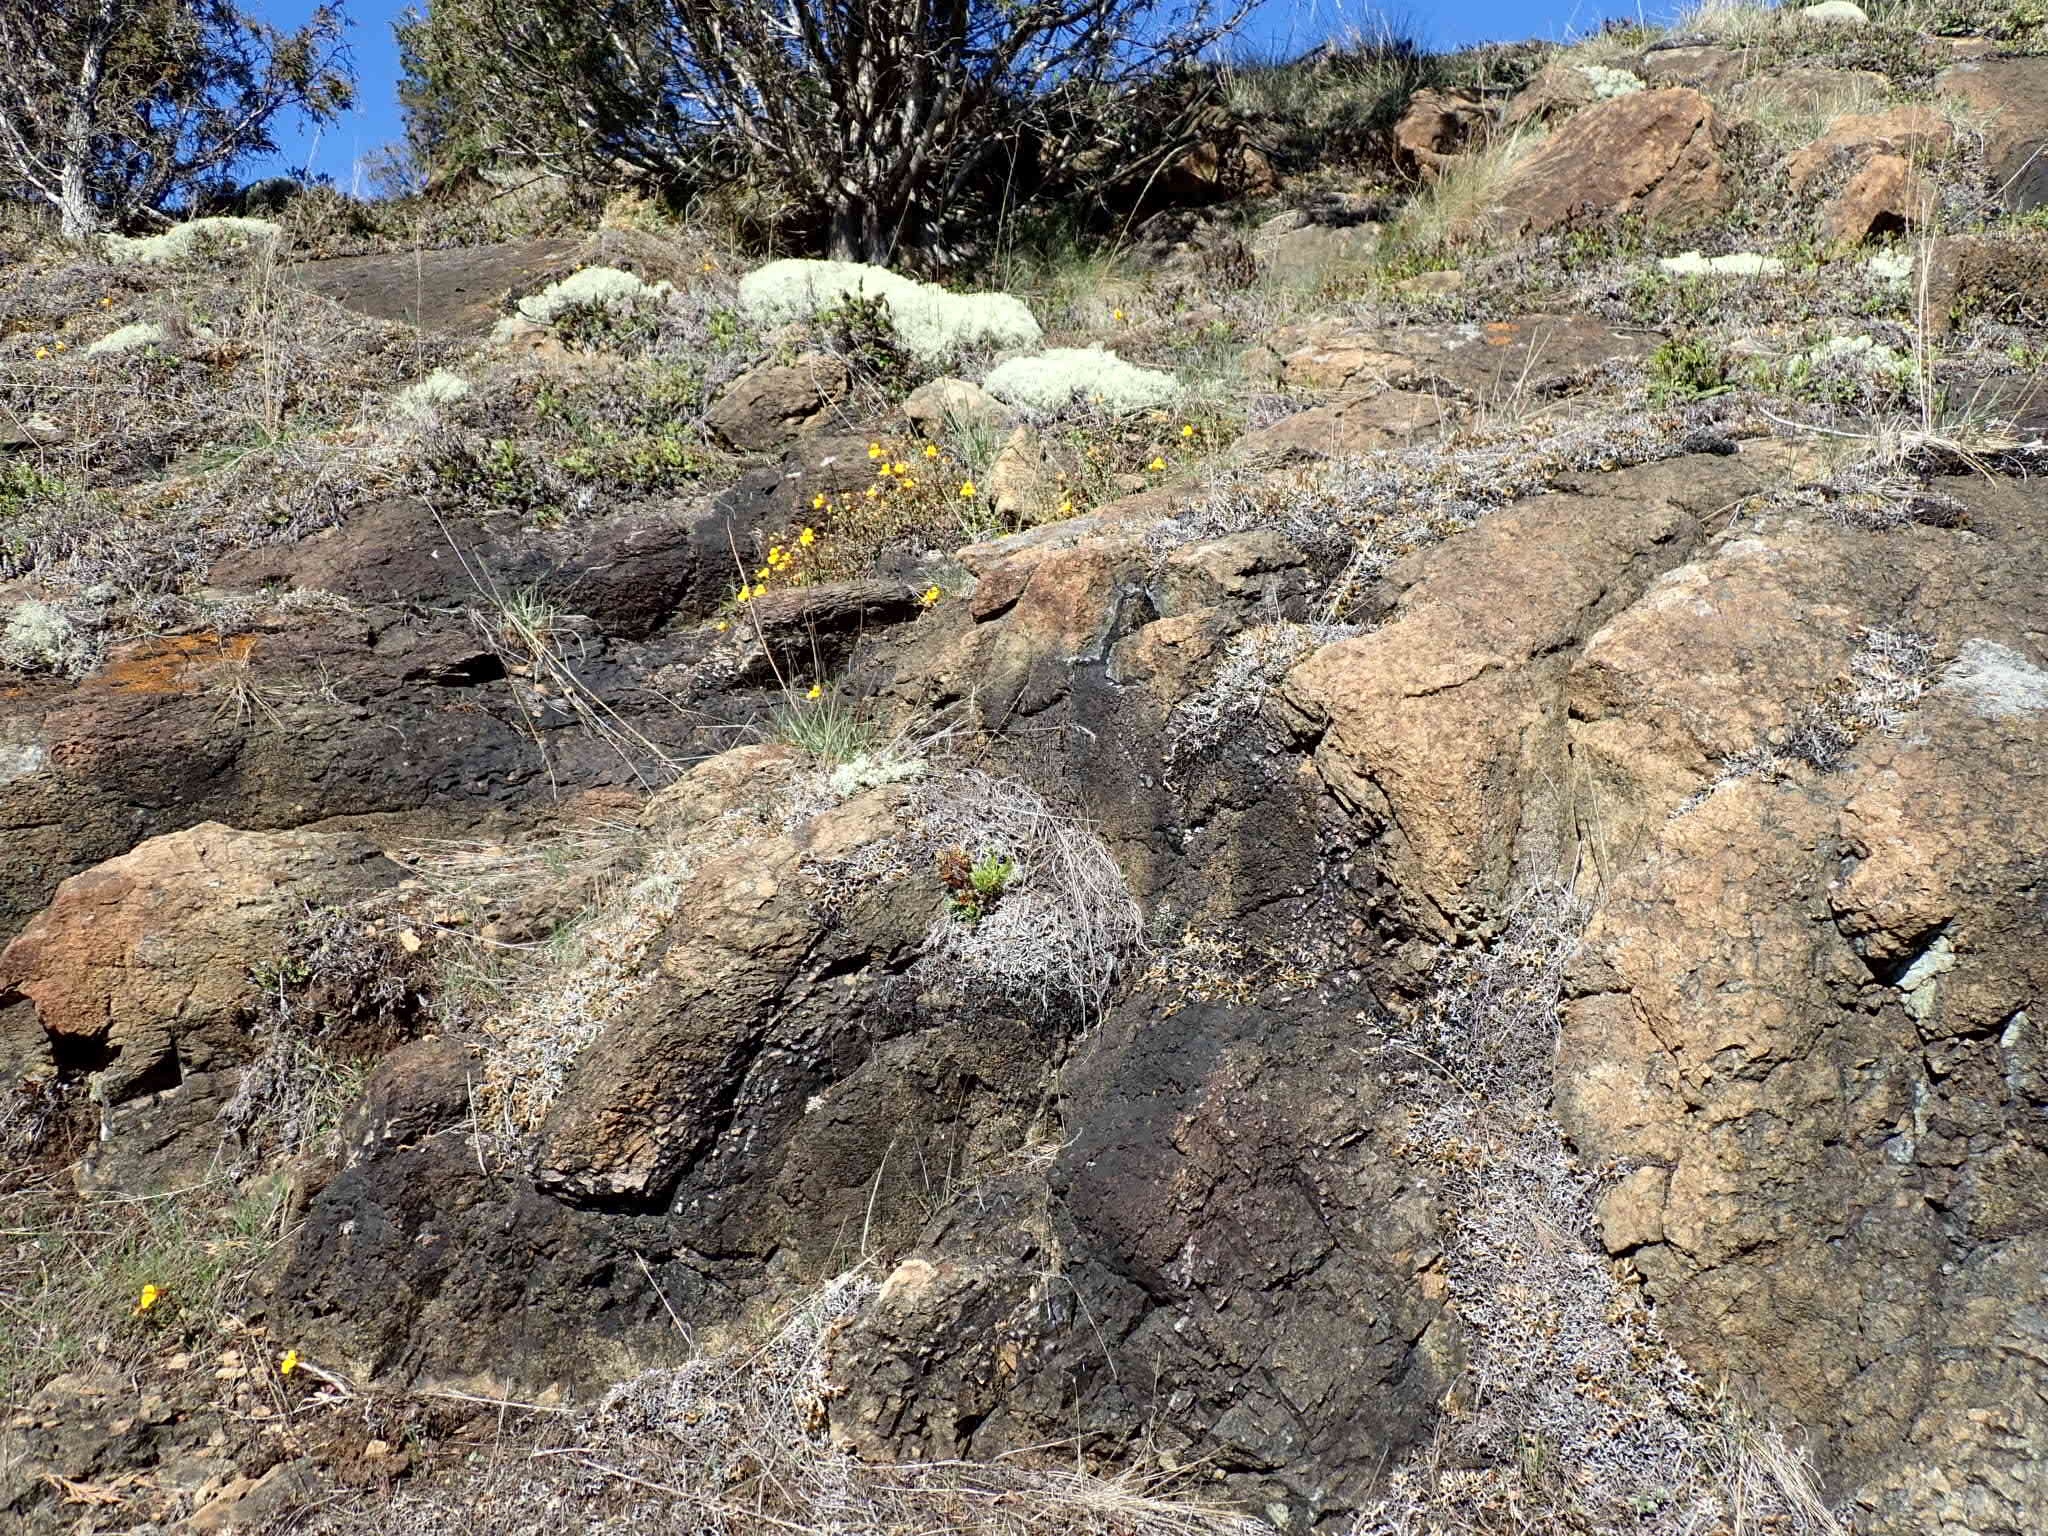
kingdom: Plantae
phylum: Tracheophyta
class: Magnoliopsida
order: Lamiales
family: Phrymaceae
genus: Erythranthe
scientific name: Erythranthe guttata
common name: Monkeyflower
